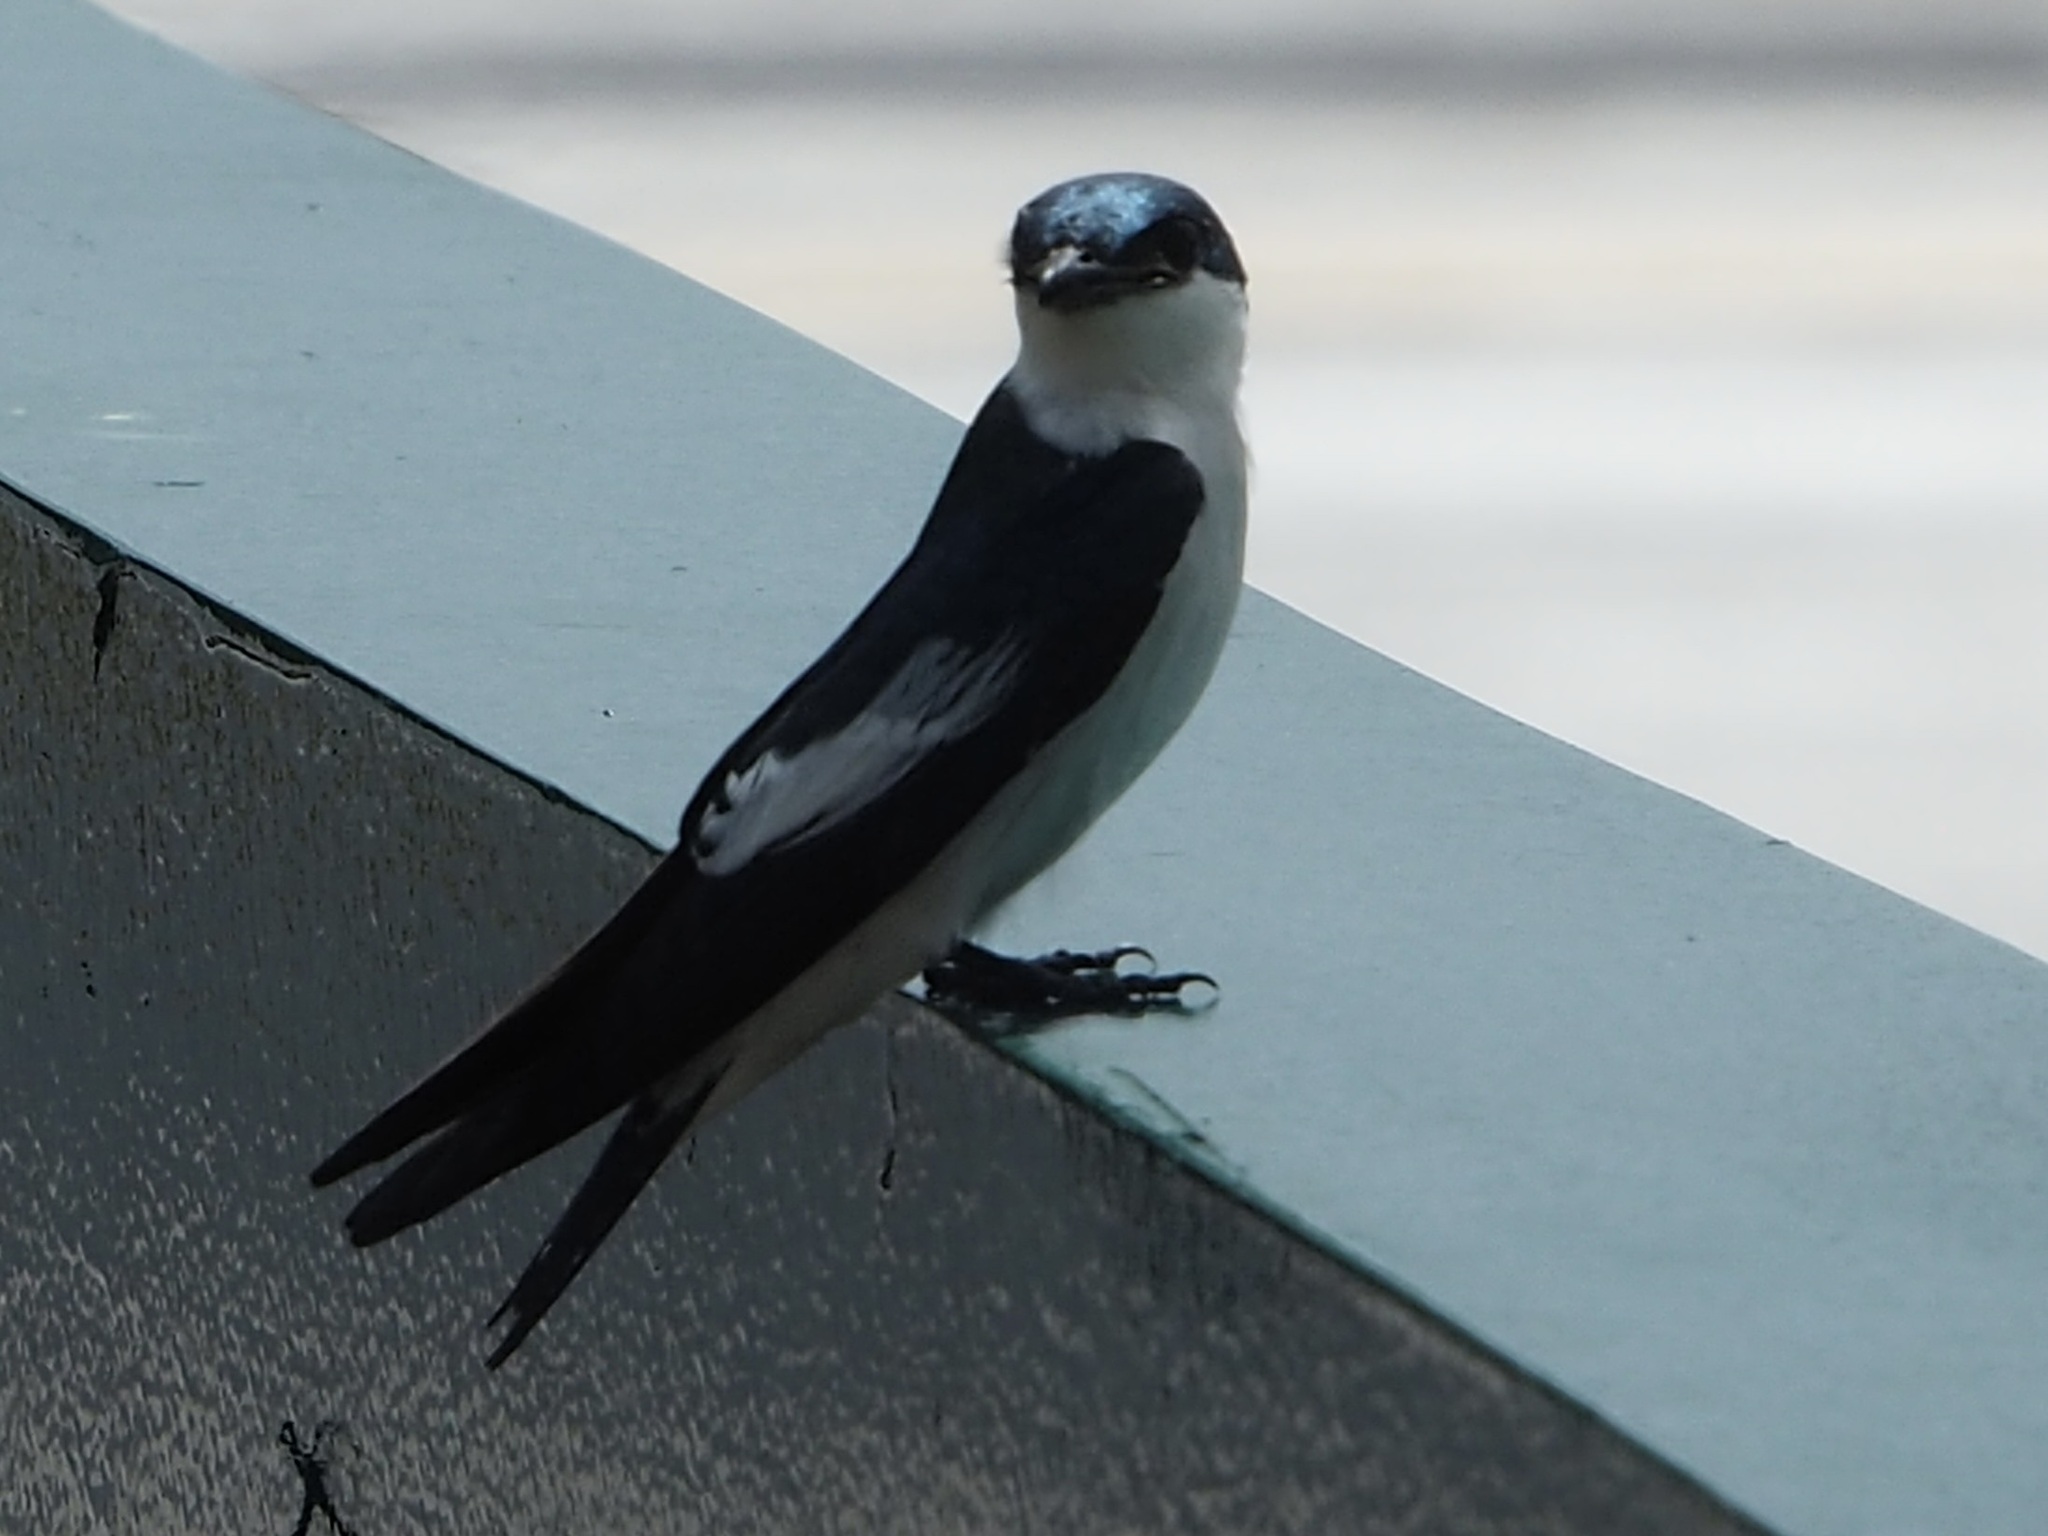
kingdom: Animalia
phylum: Chordata
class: Aves
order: Passeriformes
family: Hirundinidae
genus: Tachycineta
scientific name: Tachycineta albiventer
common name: White-winged swallow
